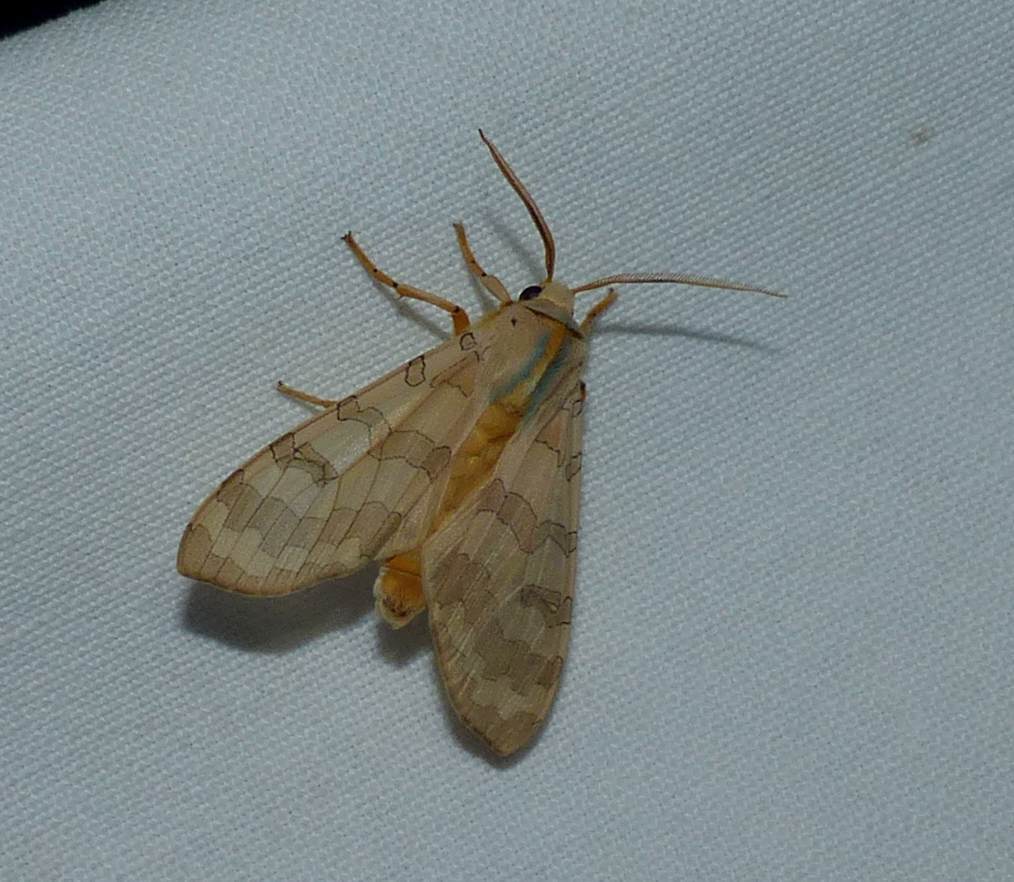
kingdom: Animalia
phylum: Arthropoda
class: Insecta
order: Lepidoptera
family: Erebidae
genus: Halysidota
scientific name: Halysidota tessellaris
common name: Banded tussock moth
